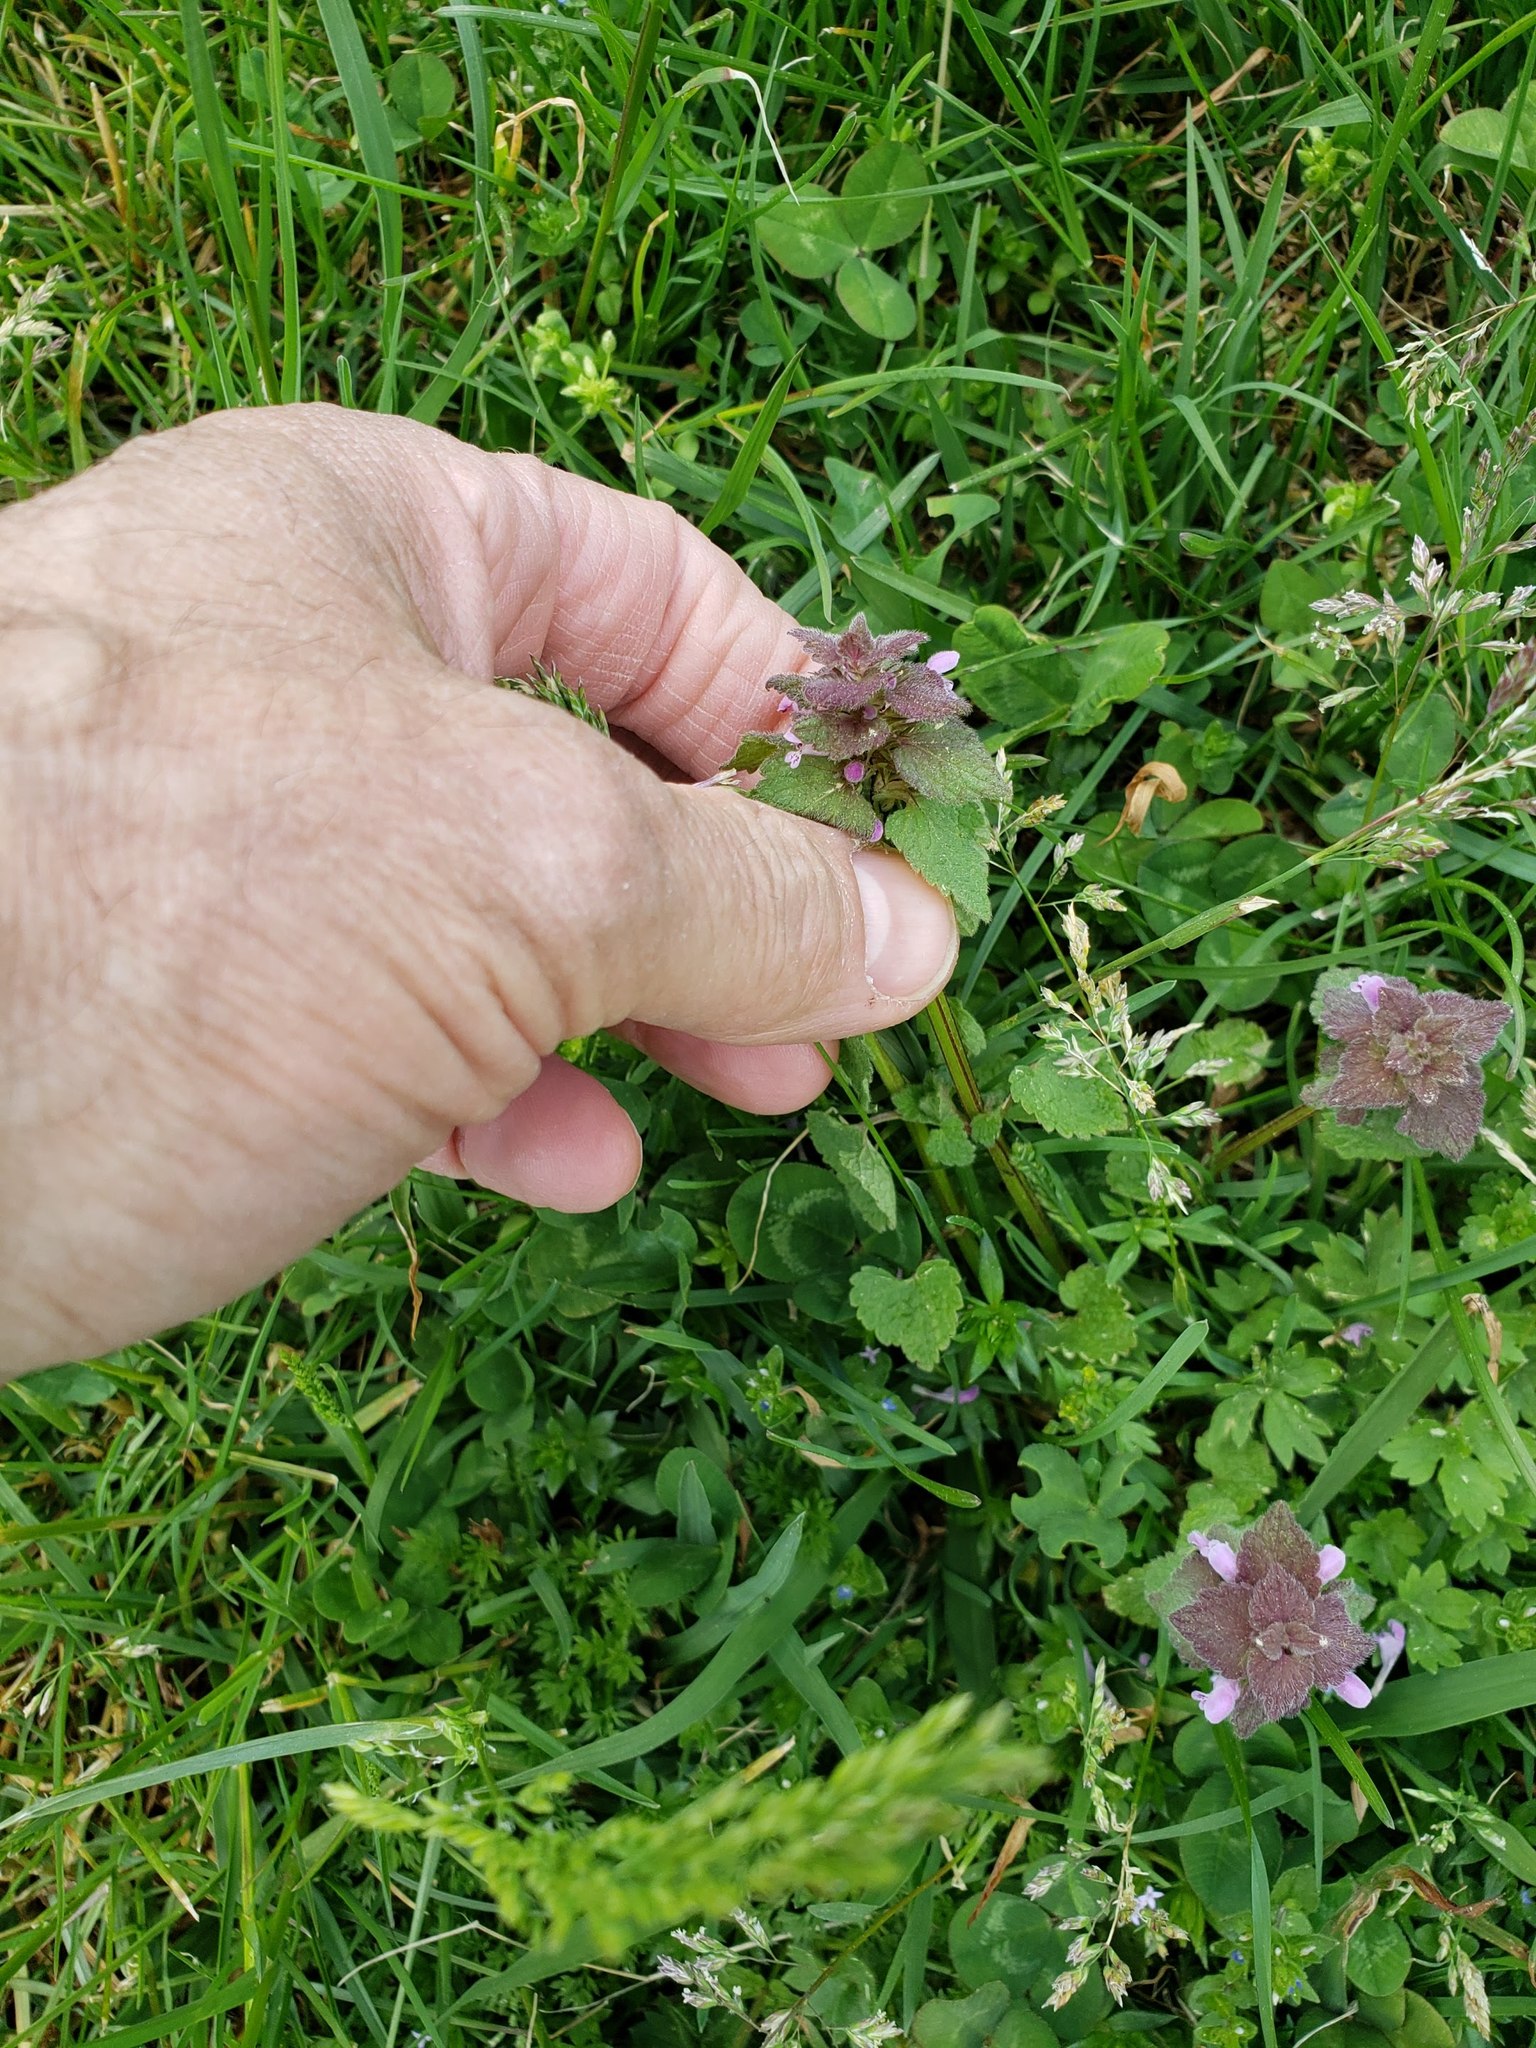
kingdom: Plantae
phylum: Tracheophyta
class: Magnoliopsida
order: Lamiales
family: Lamiaceae
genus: Lamium
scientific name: Lamium purpureum
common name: Red dead-nettle
